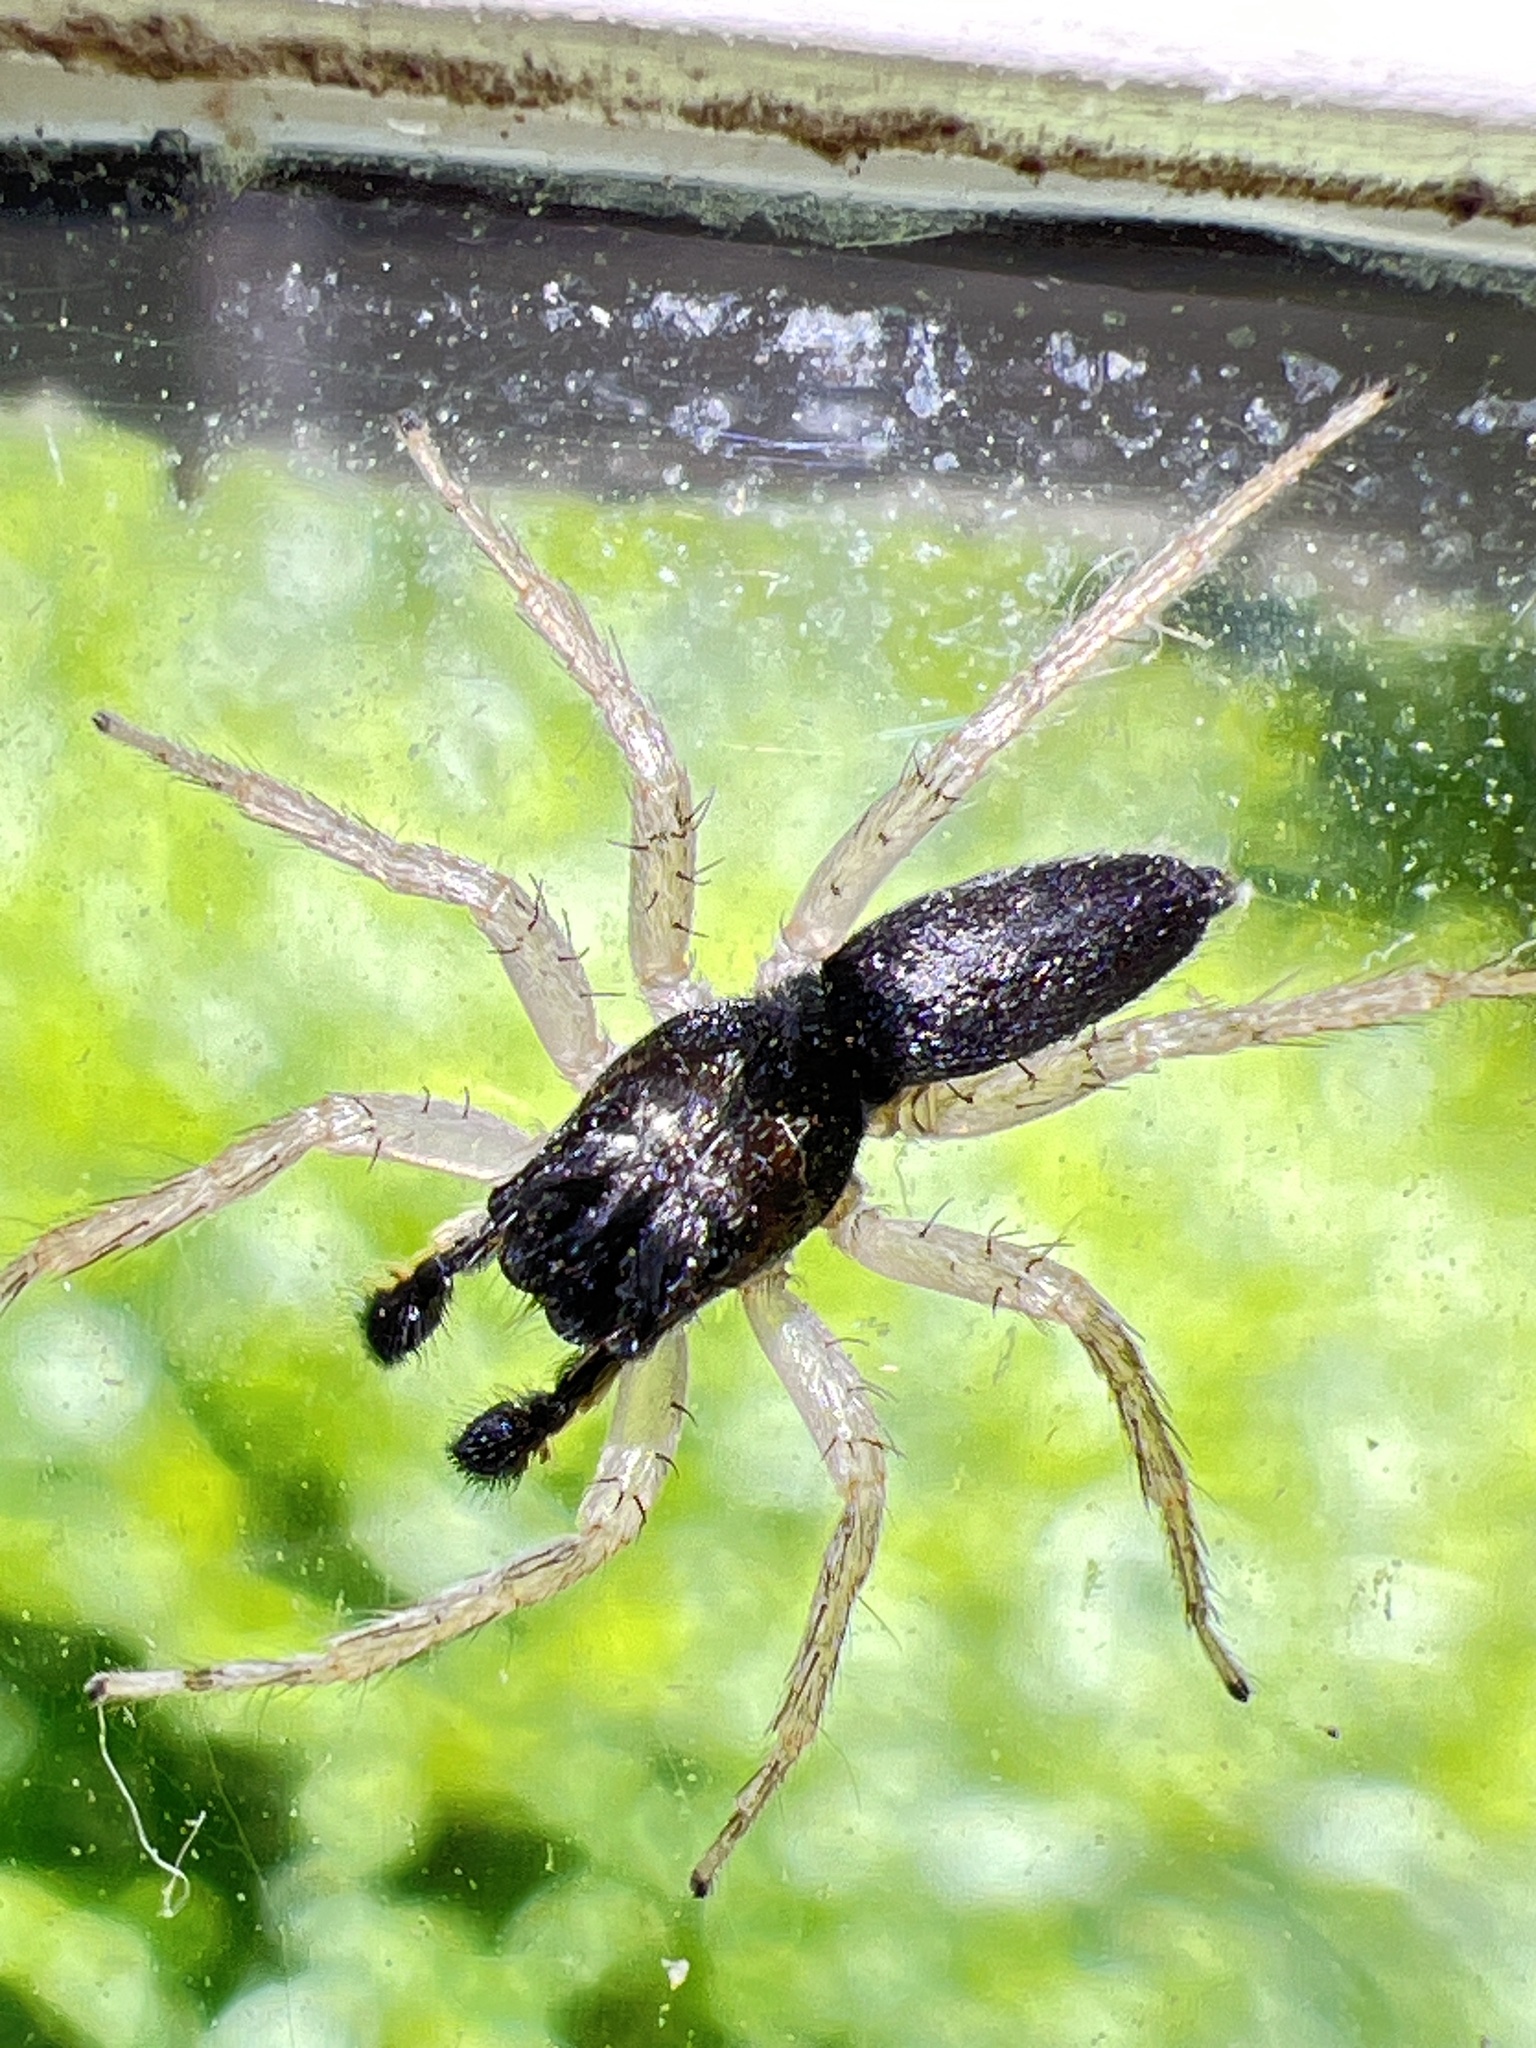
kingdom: Animalia
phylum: Arthropoda
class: Arachnida
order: Araneae
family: Salticidae
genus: Maevia
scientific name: Maevia inclemens
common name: Dimorphic jumper
